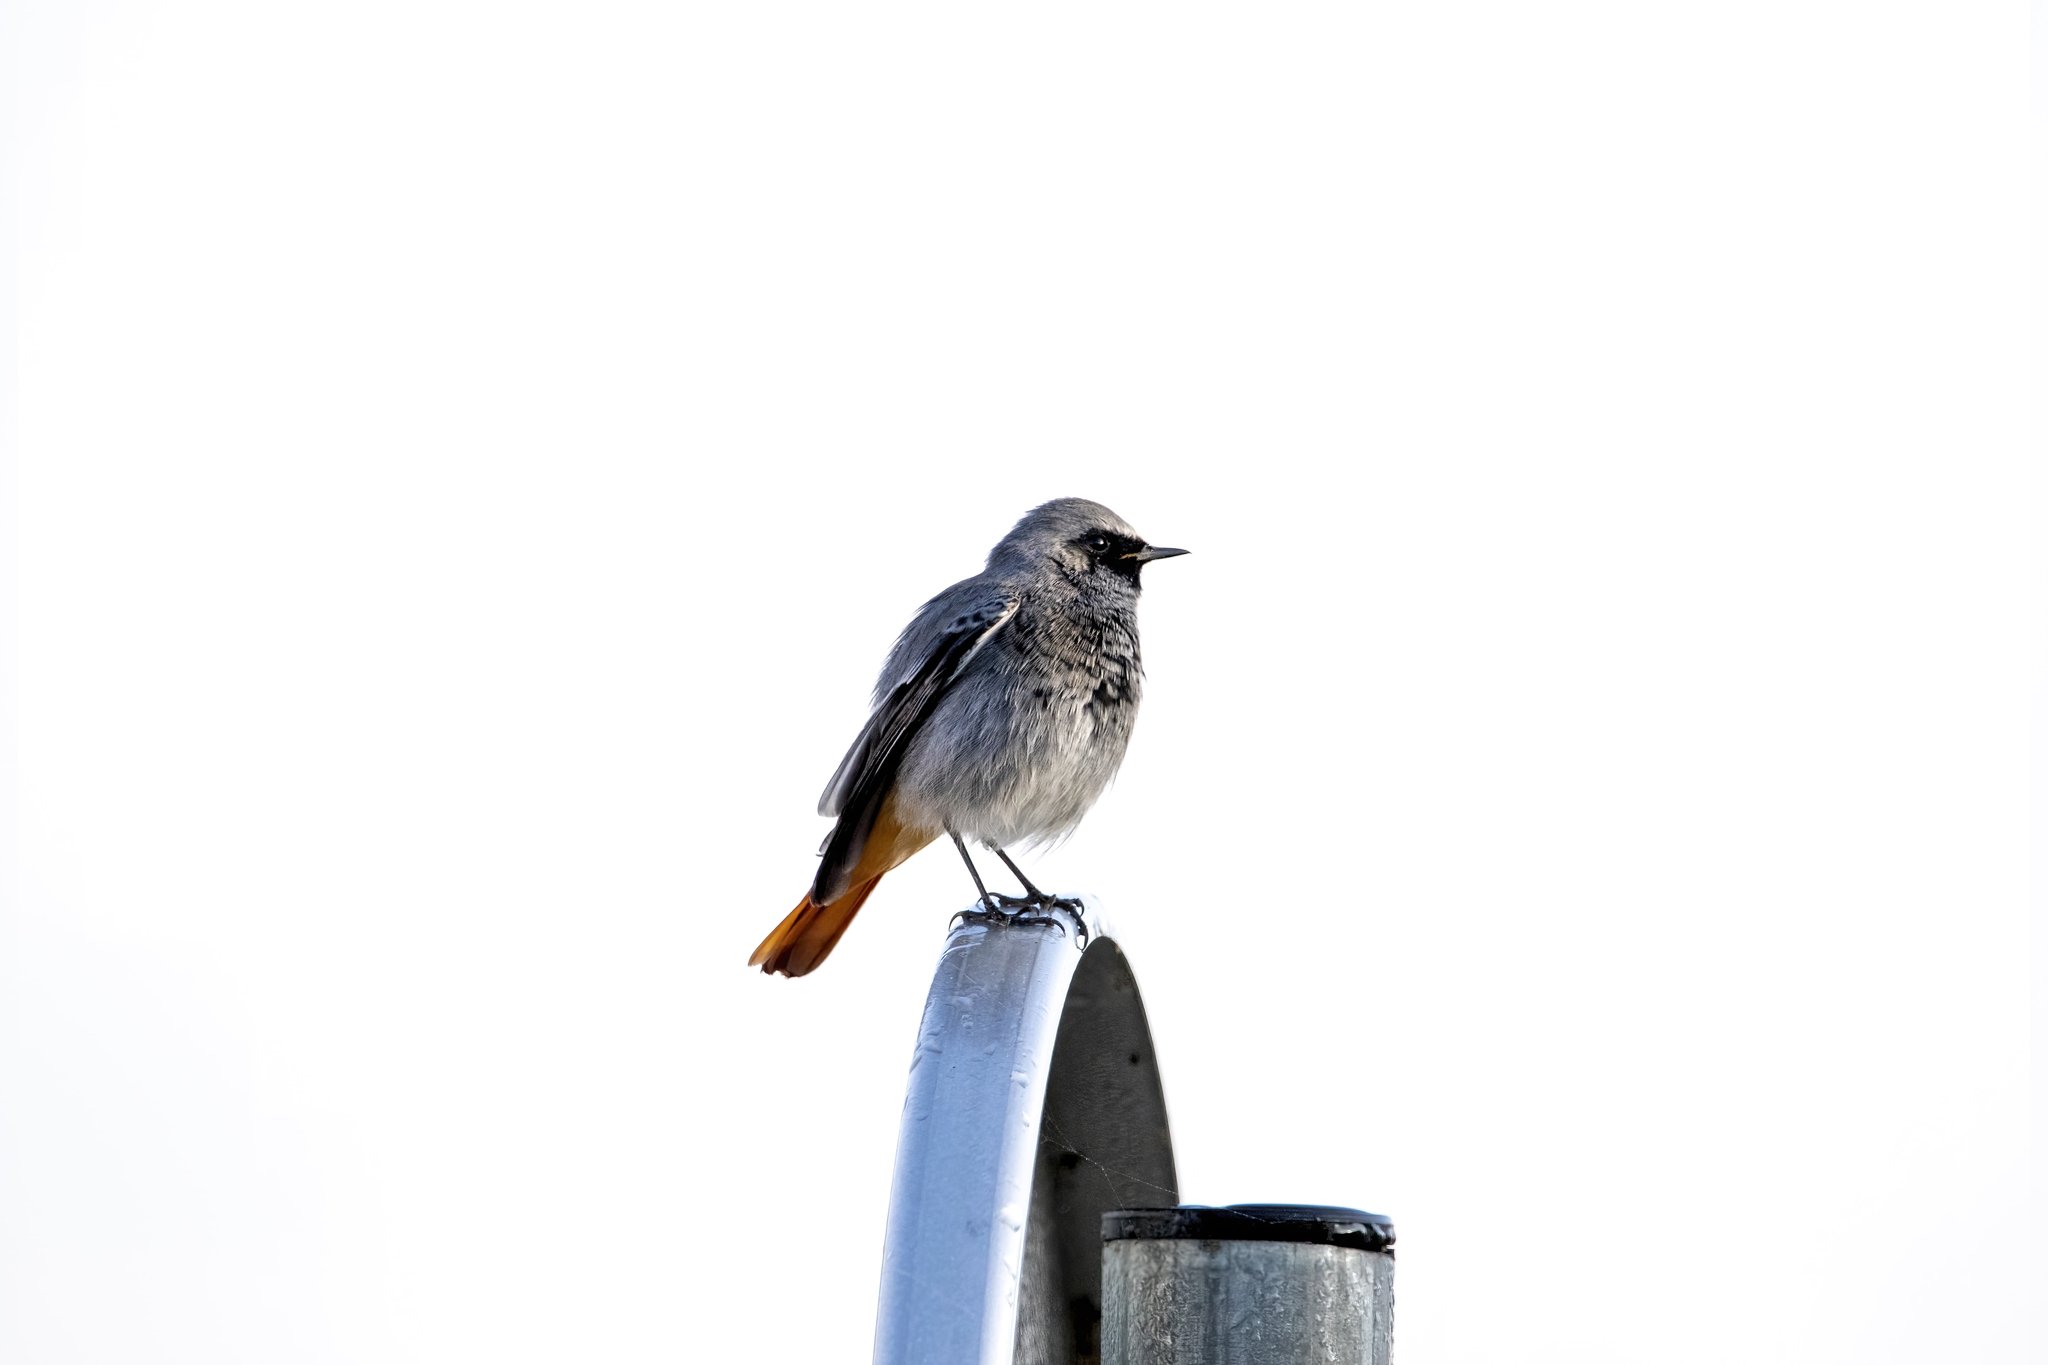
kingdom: Animalia
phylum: Chordata
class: Aves
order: Passeriformes
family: Muscicapidae
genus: Phoenicurus
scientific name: Phoenicurus ochruros
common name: Black redstart
